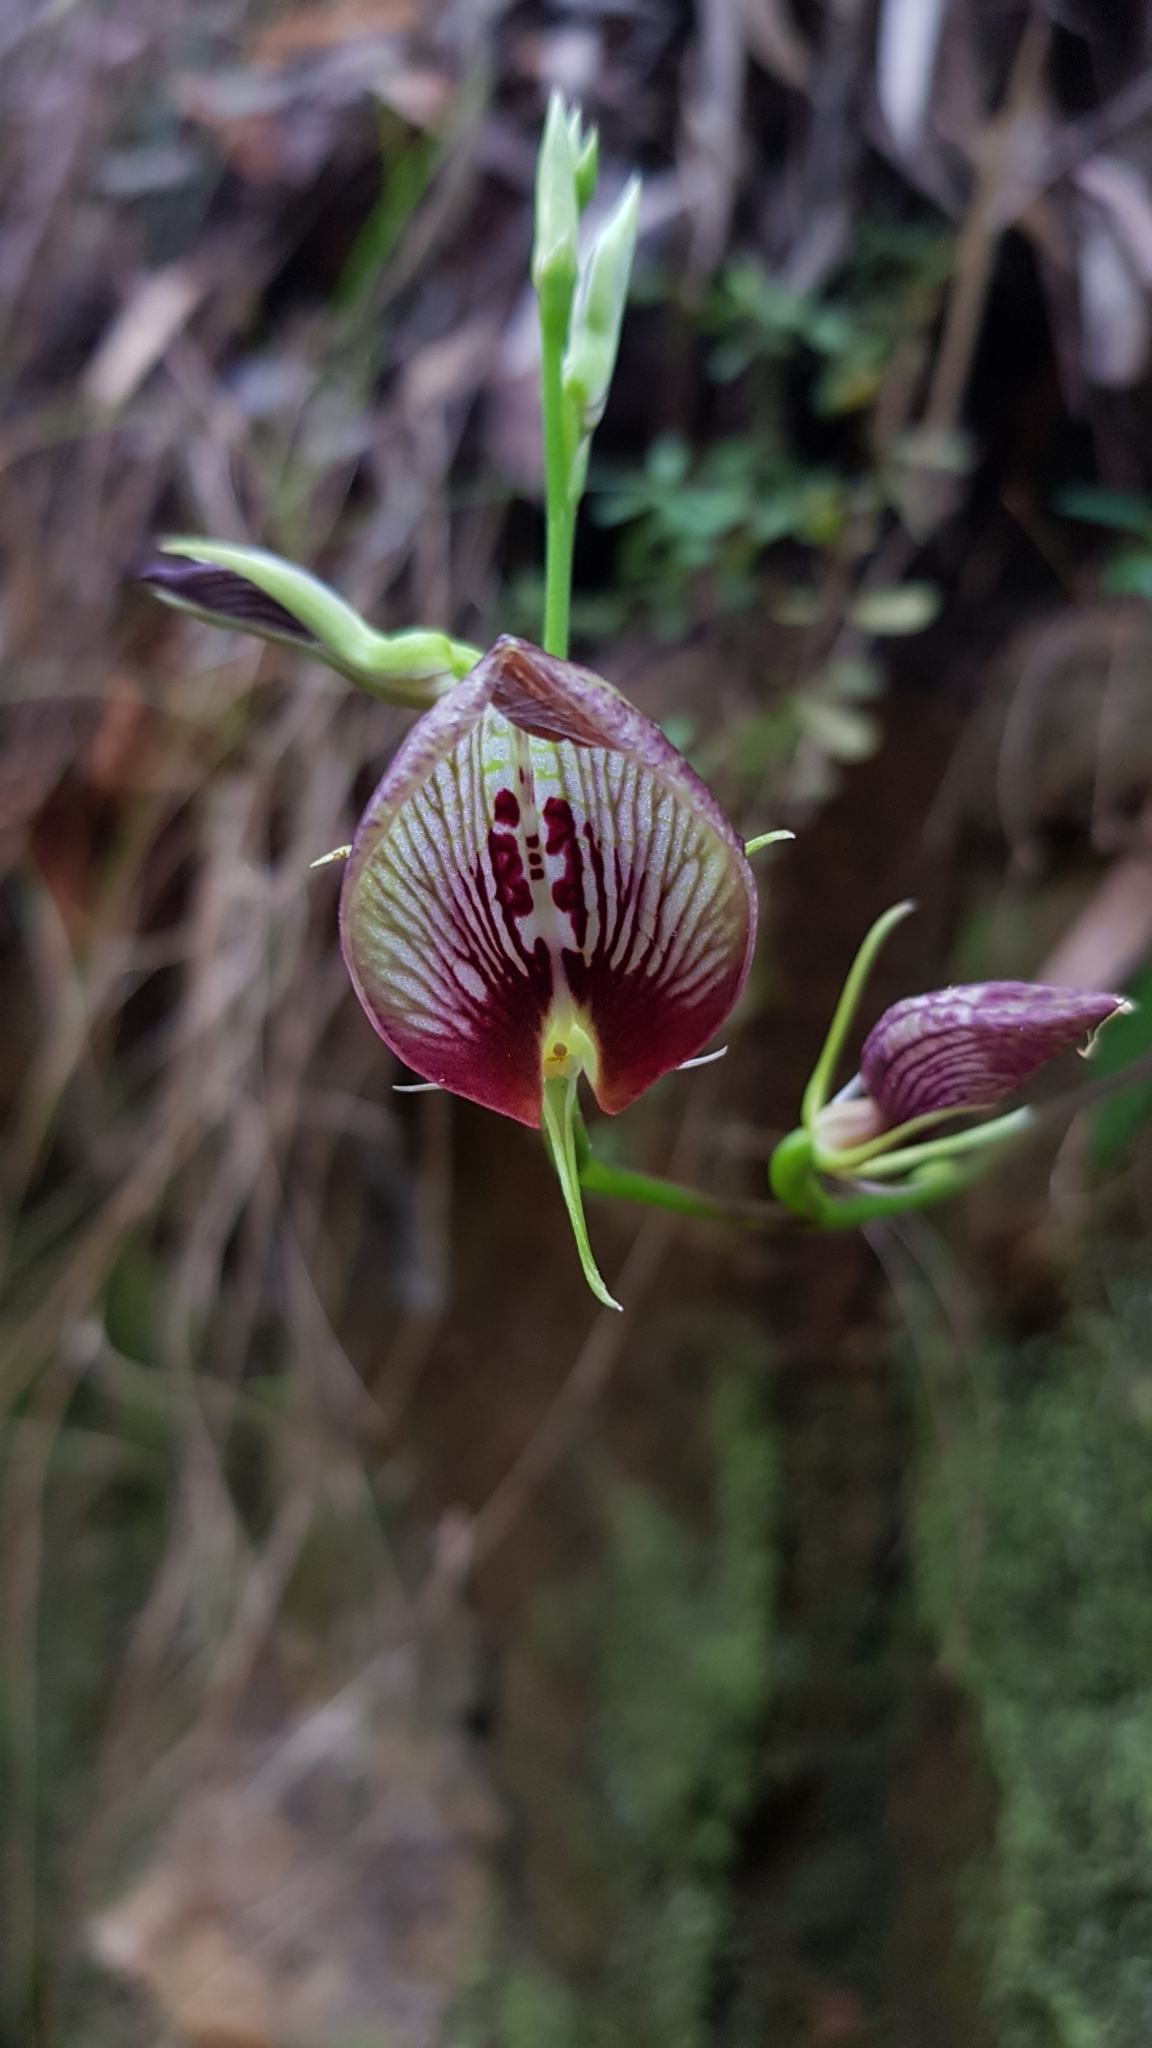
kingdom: Plantae
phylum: Tracheophyta
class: Liliopsida
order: Asparagales
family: Orchidaceae
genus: Cryptostylis
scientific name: Cryptostylis erecta
